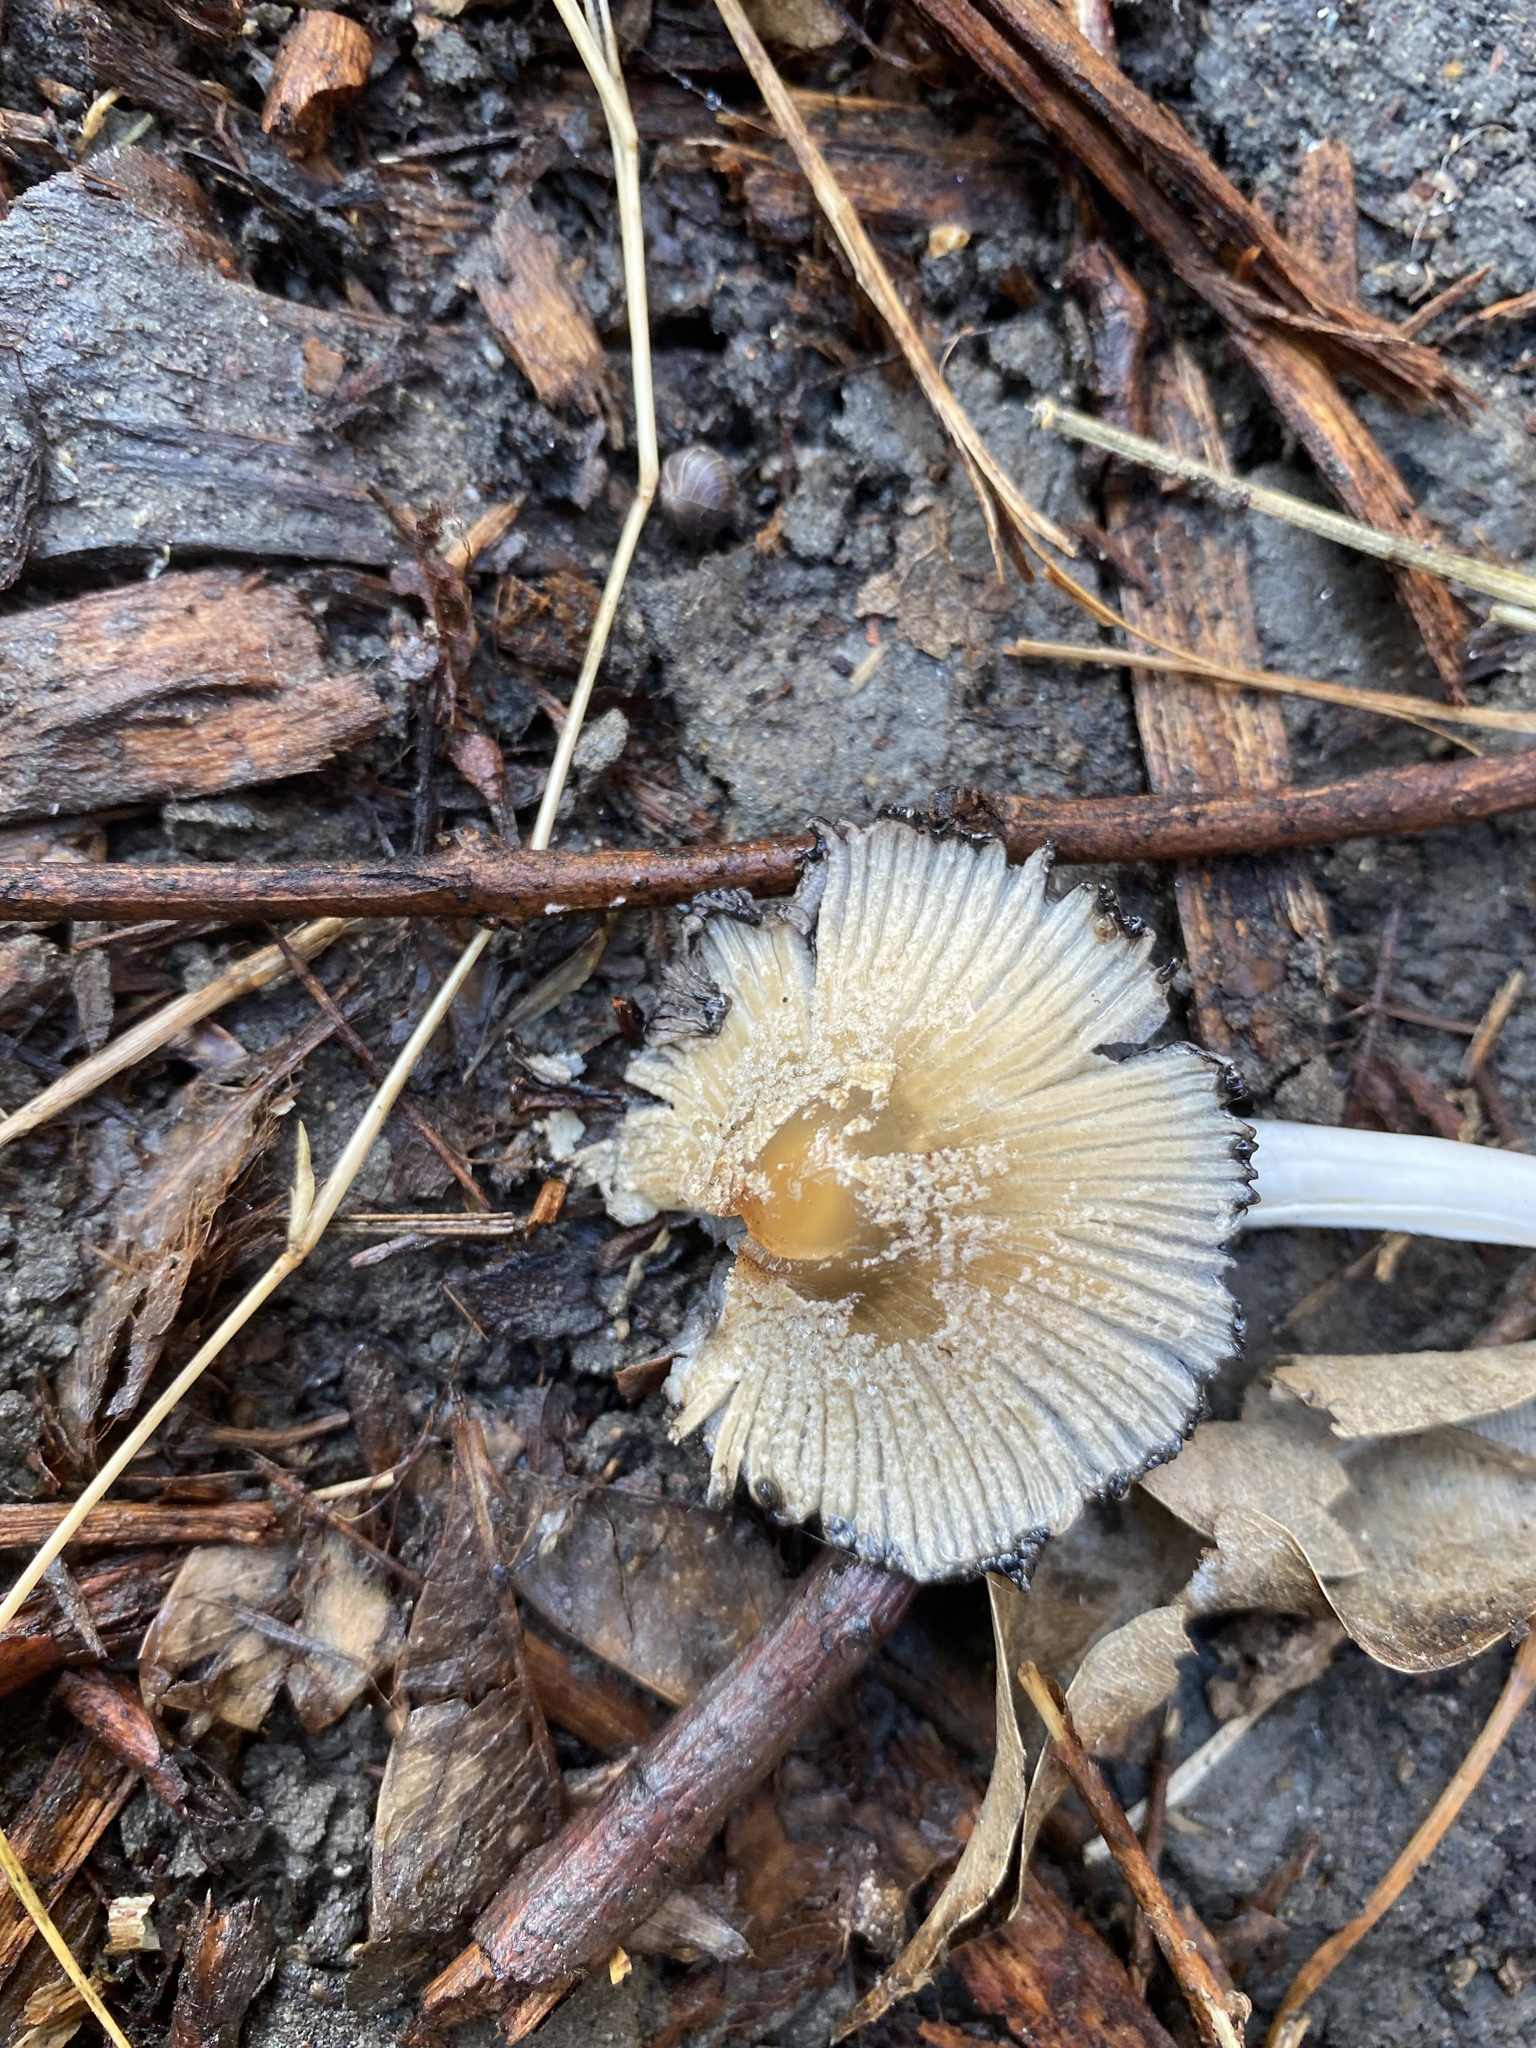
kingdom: Fungi
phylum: Basidiomycota
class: Agaricomycetes
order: Agaricales
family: Psathyrellaceae
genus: Coprinellus
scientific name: Coprinellus flocculosus
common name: Flocculose inkcap
